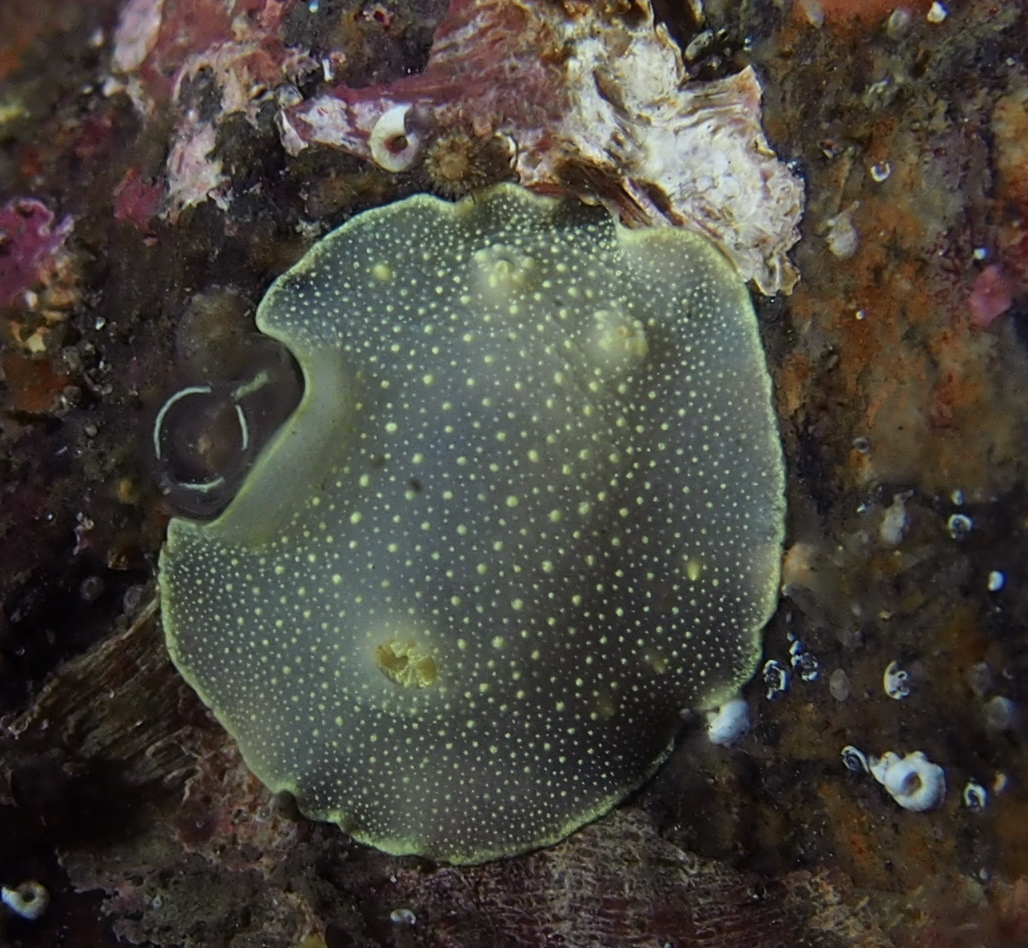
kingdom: Animalia
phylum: Mollusca
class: Gastropoda
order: Nudibranchia
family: Cadlinidae
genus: Cadlina
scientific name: Cadlina laevis
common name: White atlantic cadlina
